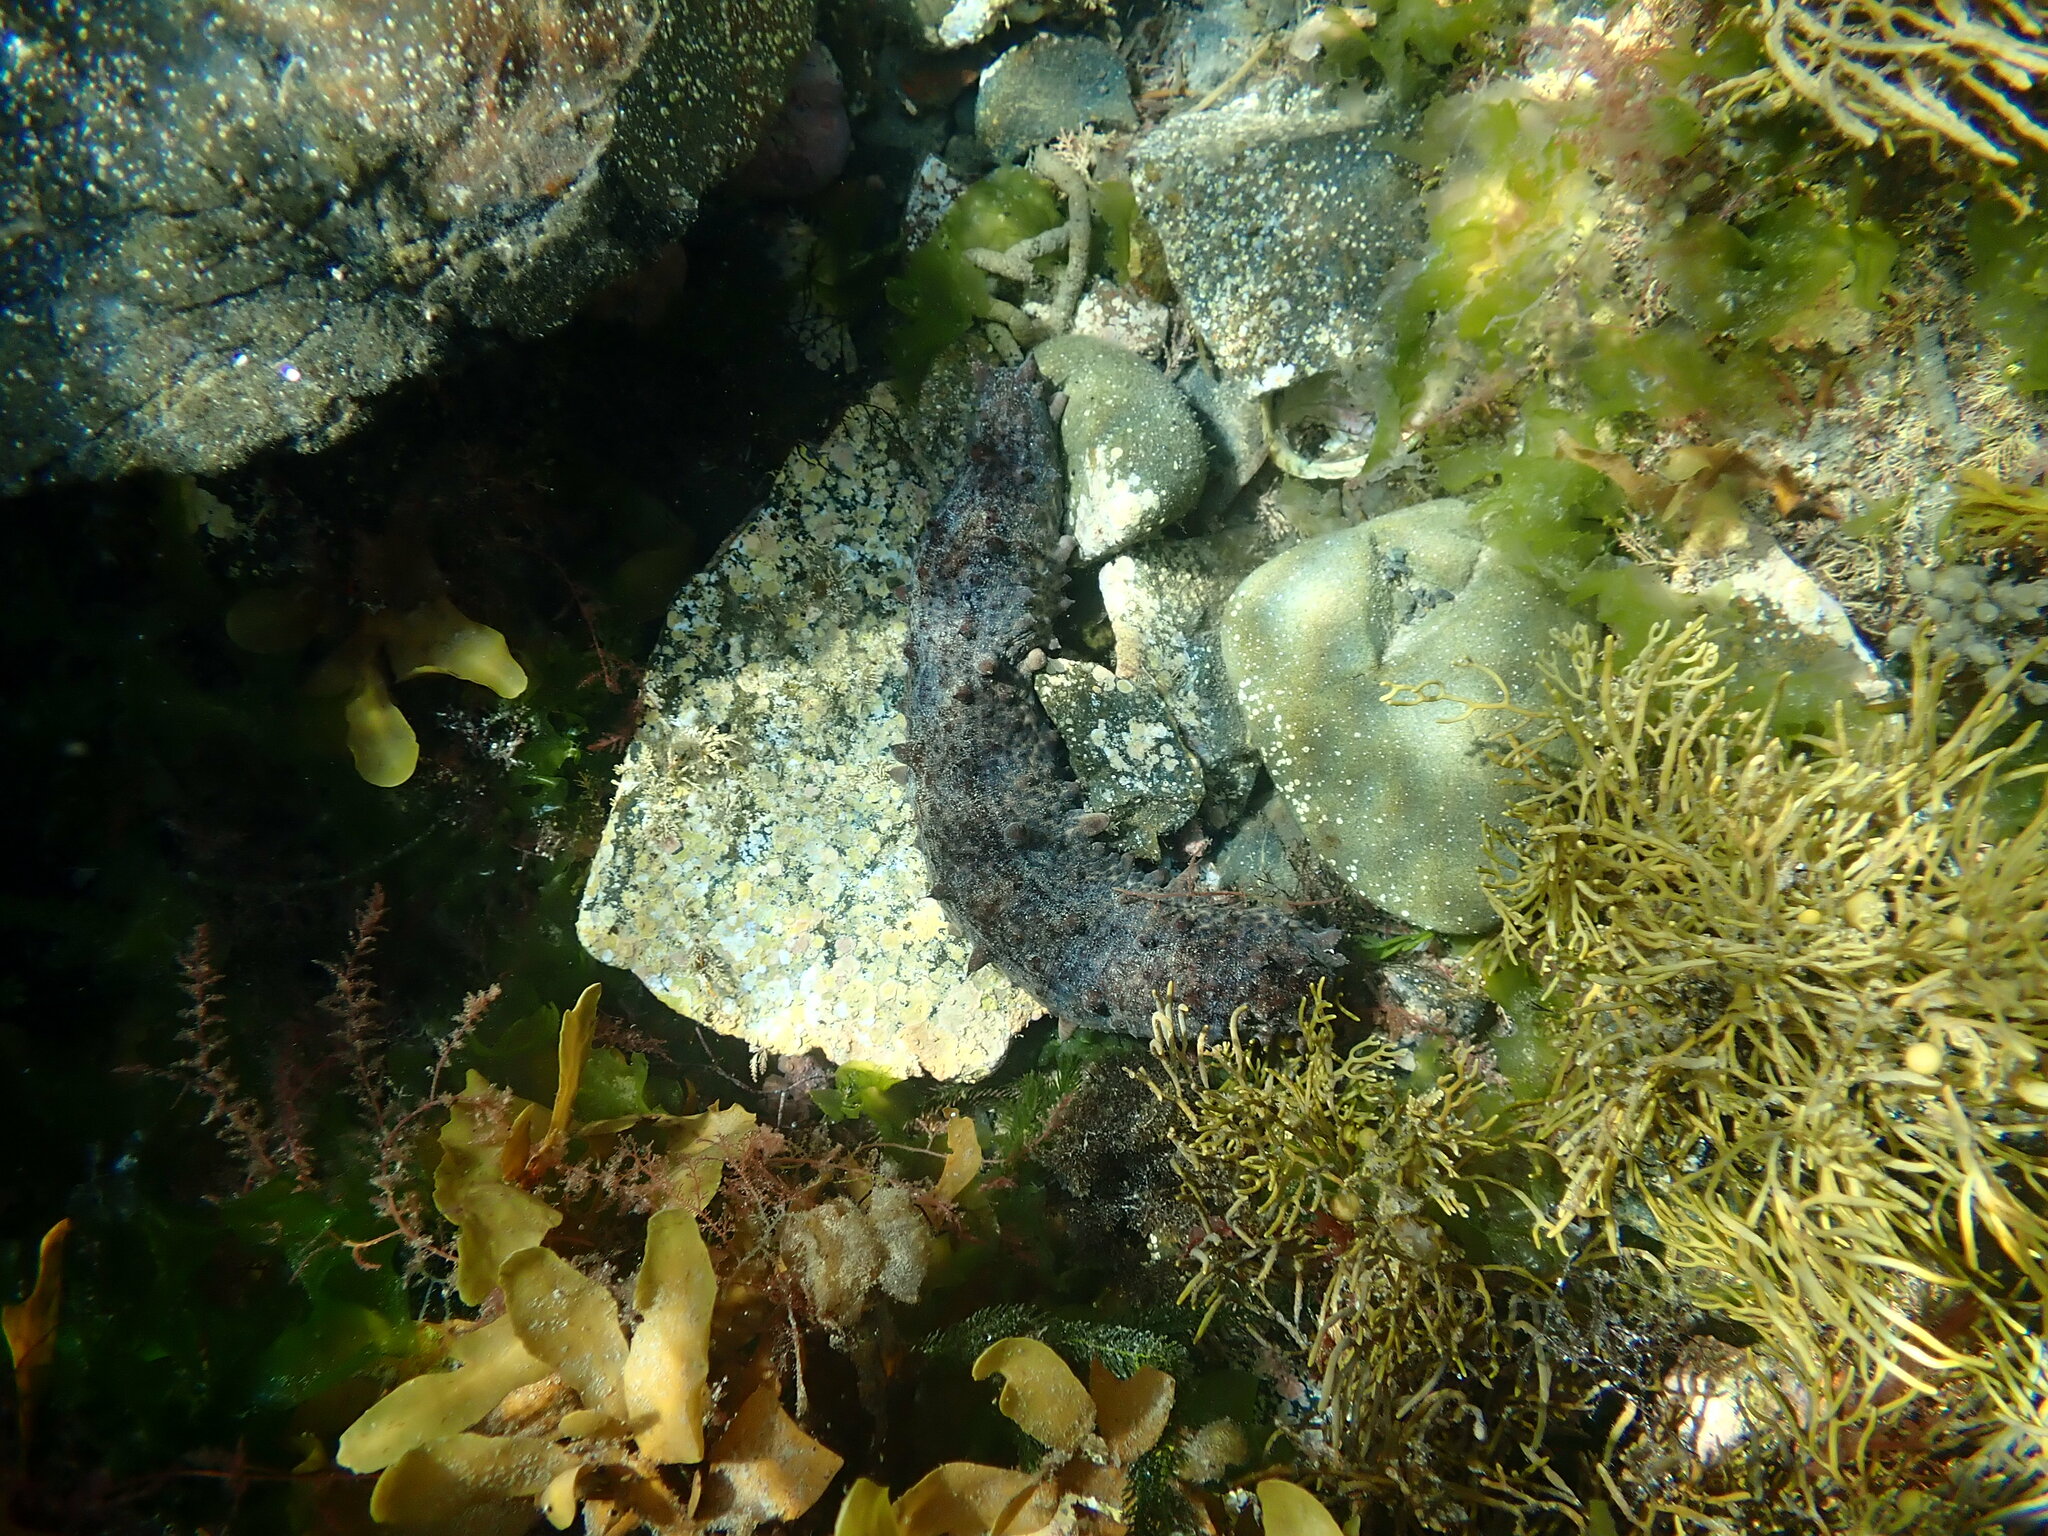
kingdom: Animalia
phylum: Echinodermata
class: Holothuroidea
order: Synallactida
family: Stichopodidae
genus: Australostichopus
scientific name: Australostichopus mollis
